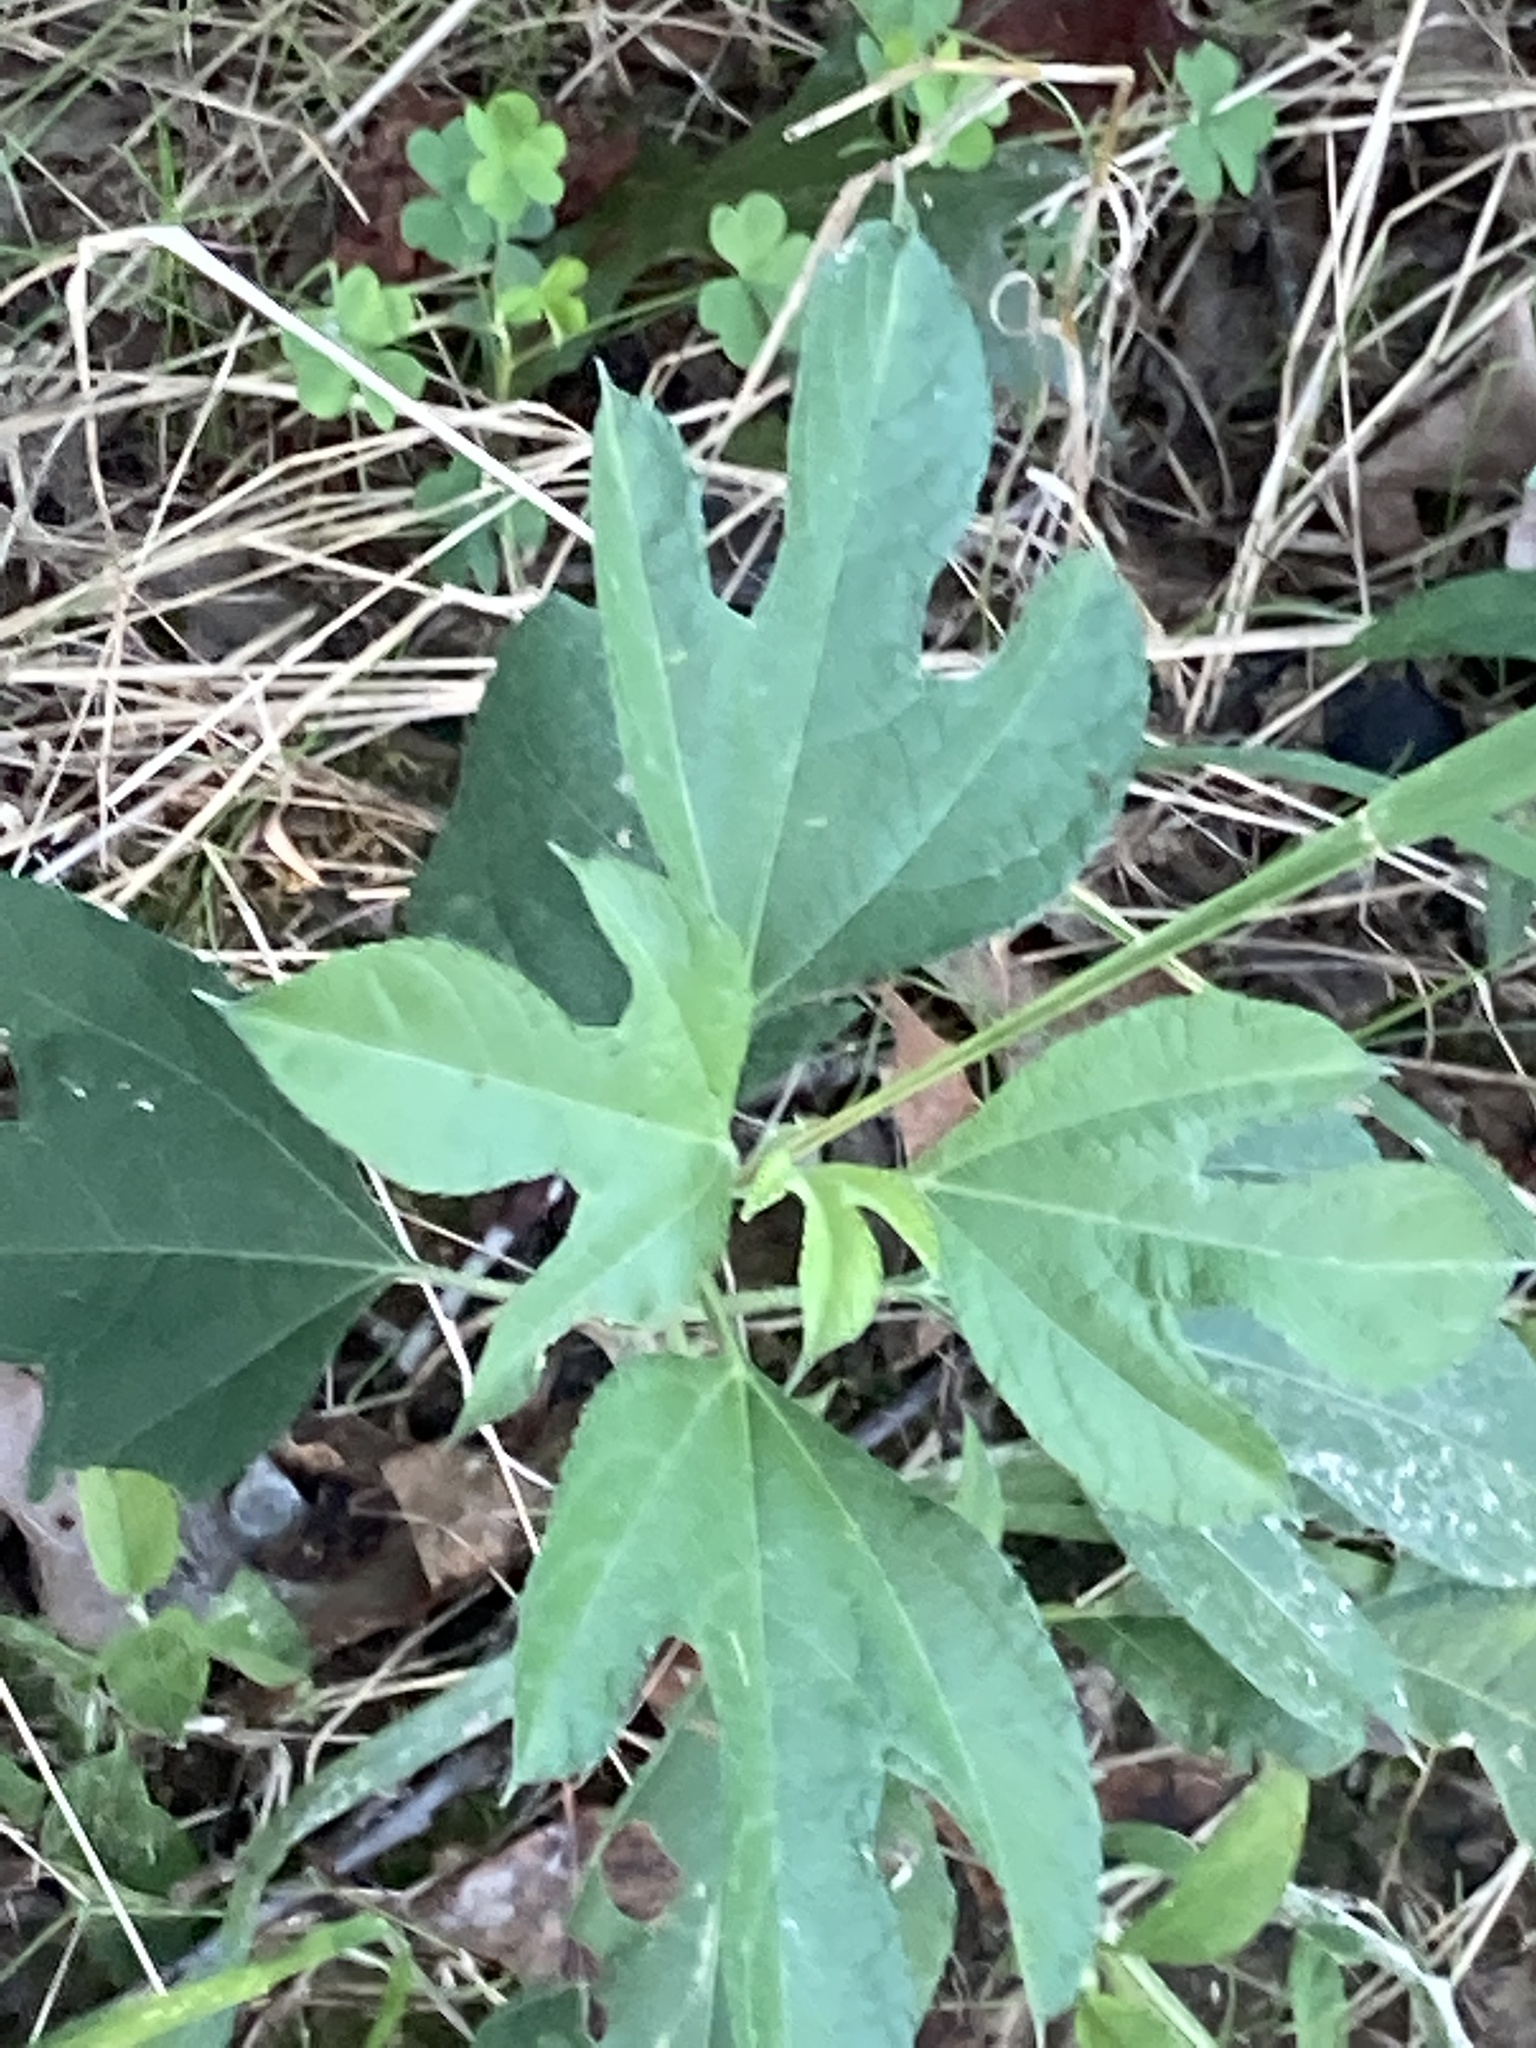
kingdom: Plantae
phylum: Tracheophyta
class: Magnoliopsida
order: Laurales
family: Lauraceae
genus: Sassafras
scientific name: Sassafras albidum
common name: Sassafras
